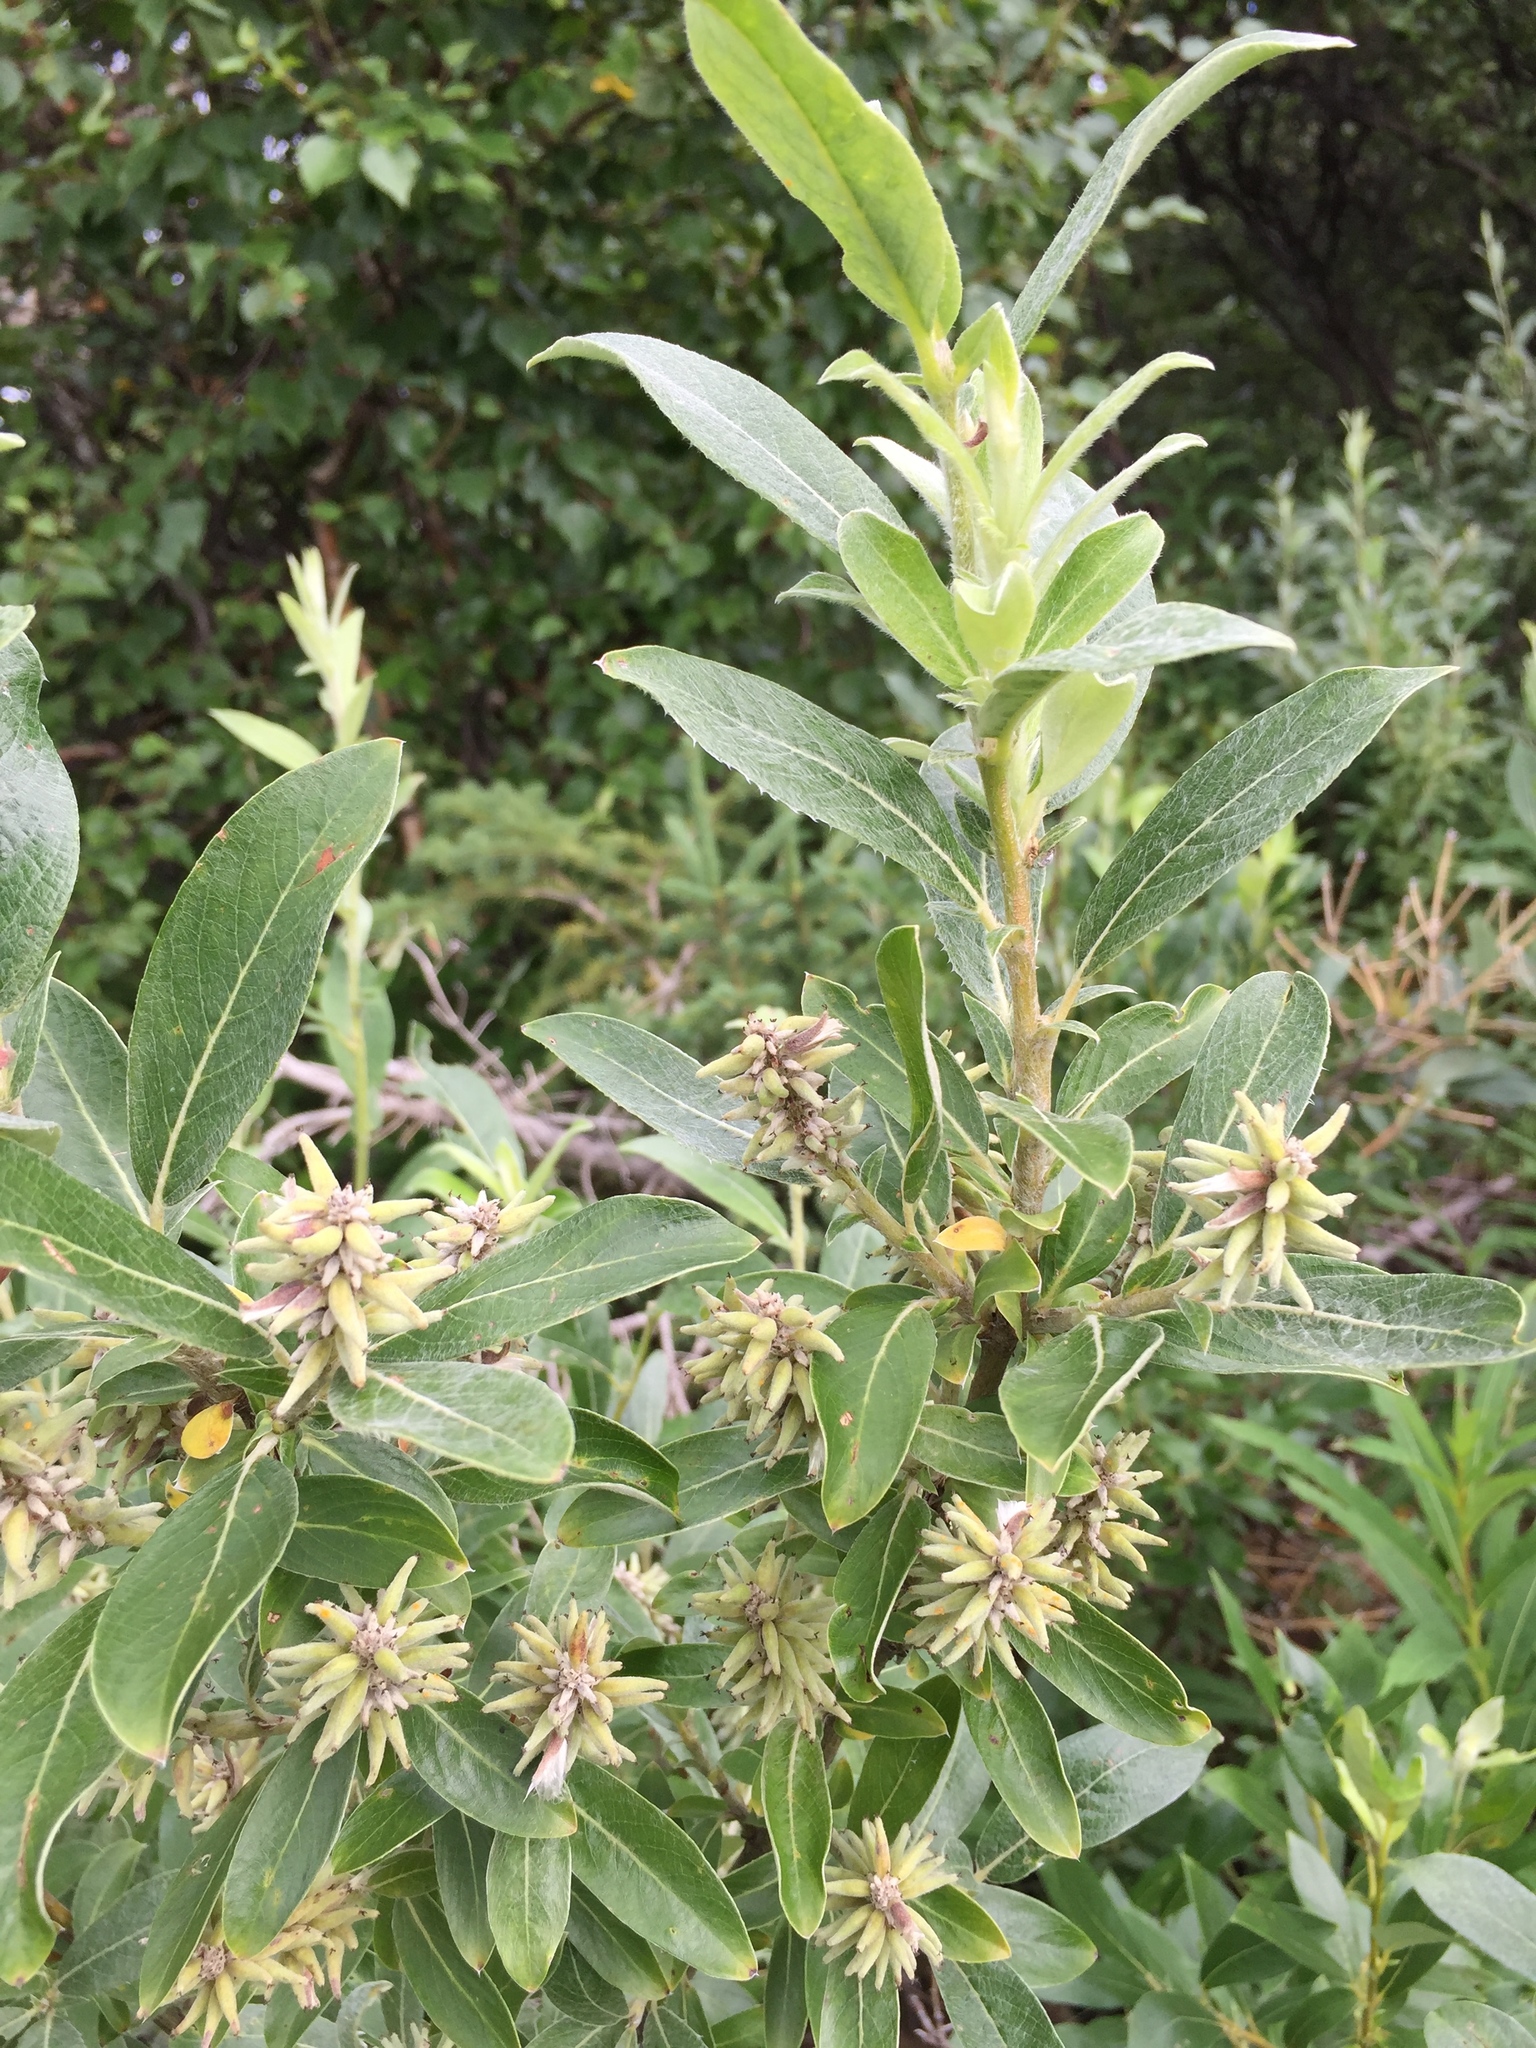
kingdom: Plantae
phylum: Tracheophyta
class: Magnoliopsida
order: Malpighiales
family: Salicaceae
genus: Salix
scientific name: Salix glauca
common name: Glaucous willow
